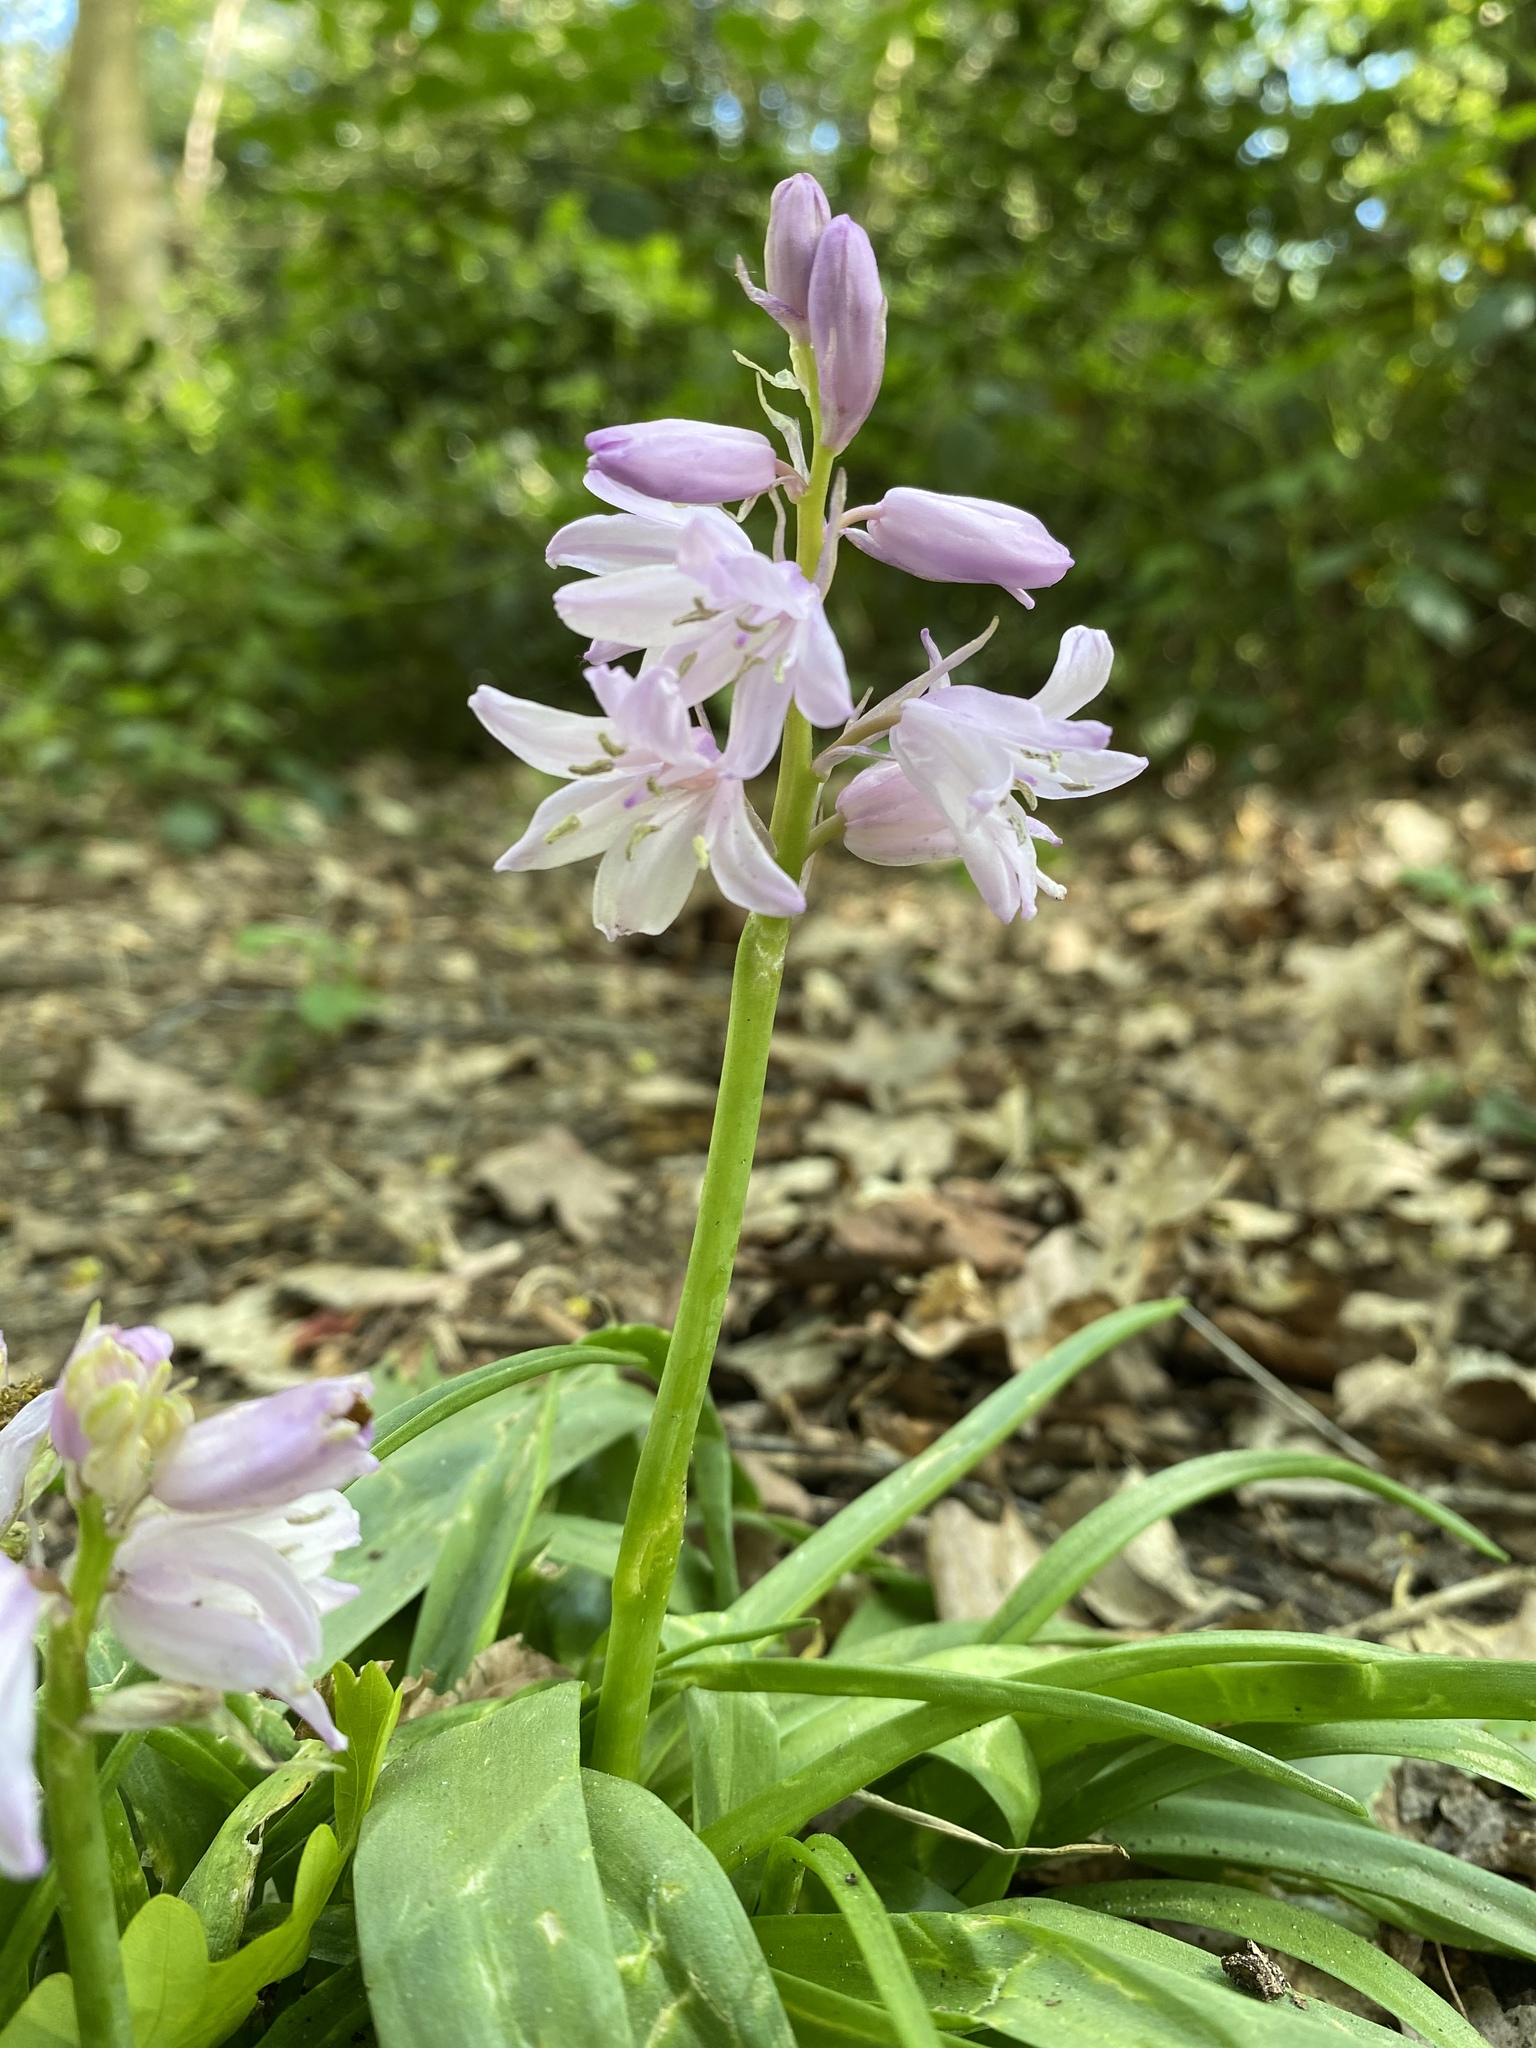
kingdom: Plantae
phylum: Tracheophyta
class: Liliopsida
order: Asparagales
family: Asparagaceae
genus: Hyacinthoides
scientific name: Hyacinthoides hispanica
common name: Spanish bluebell
